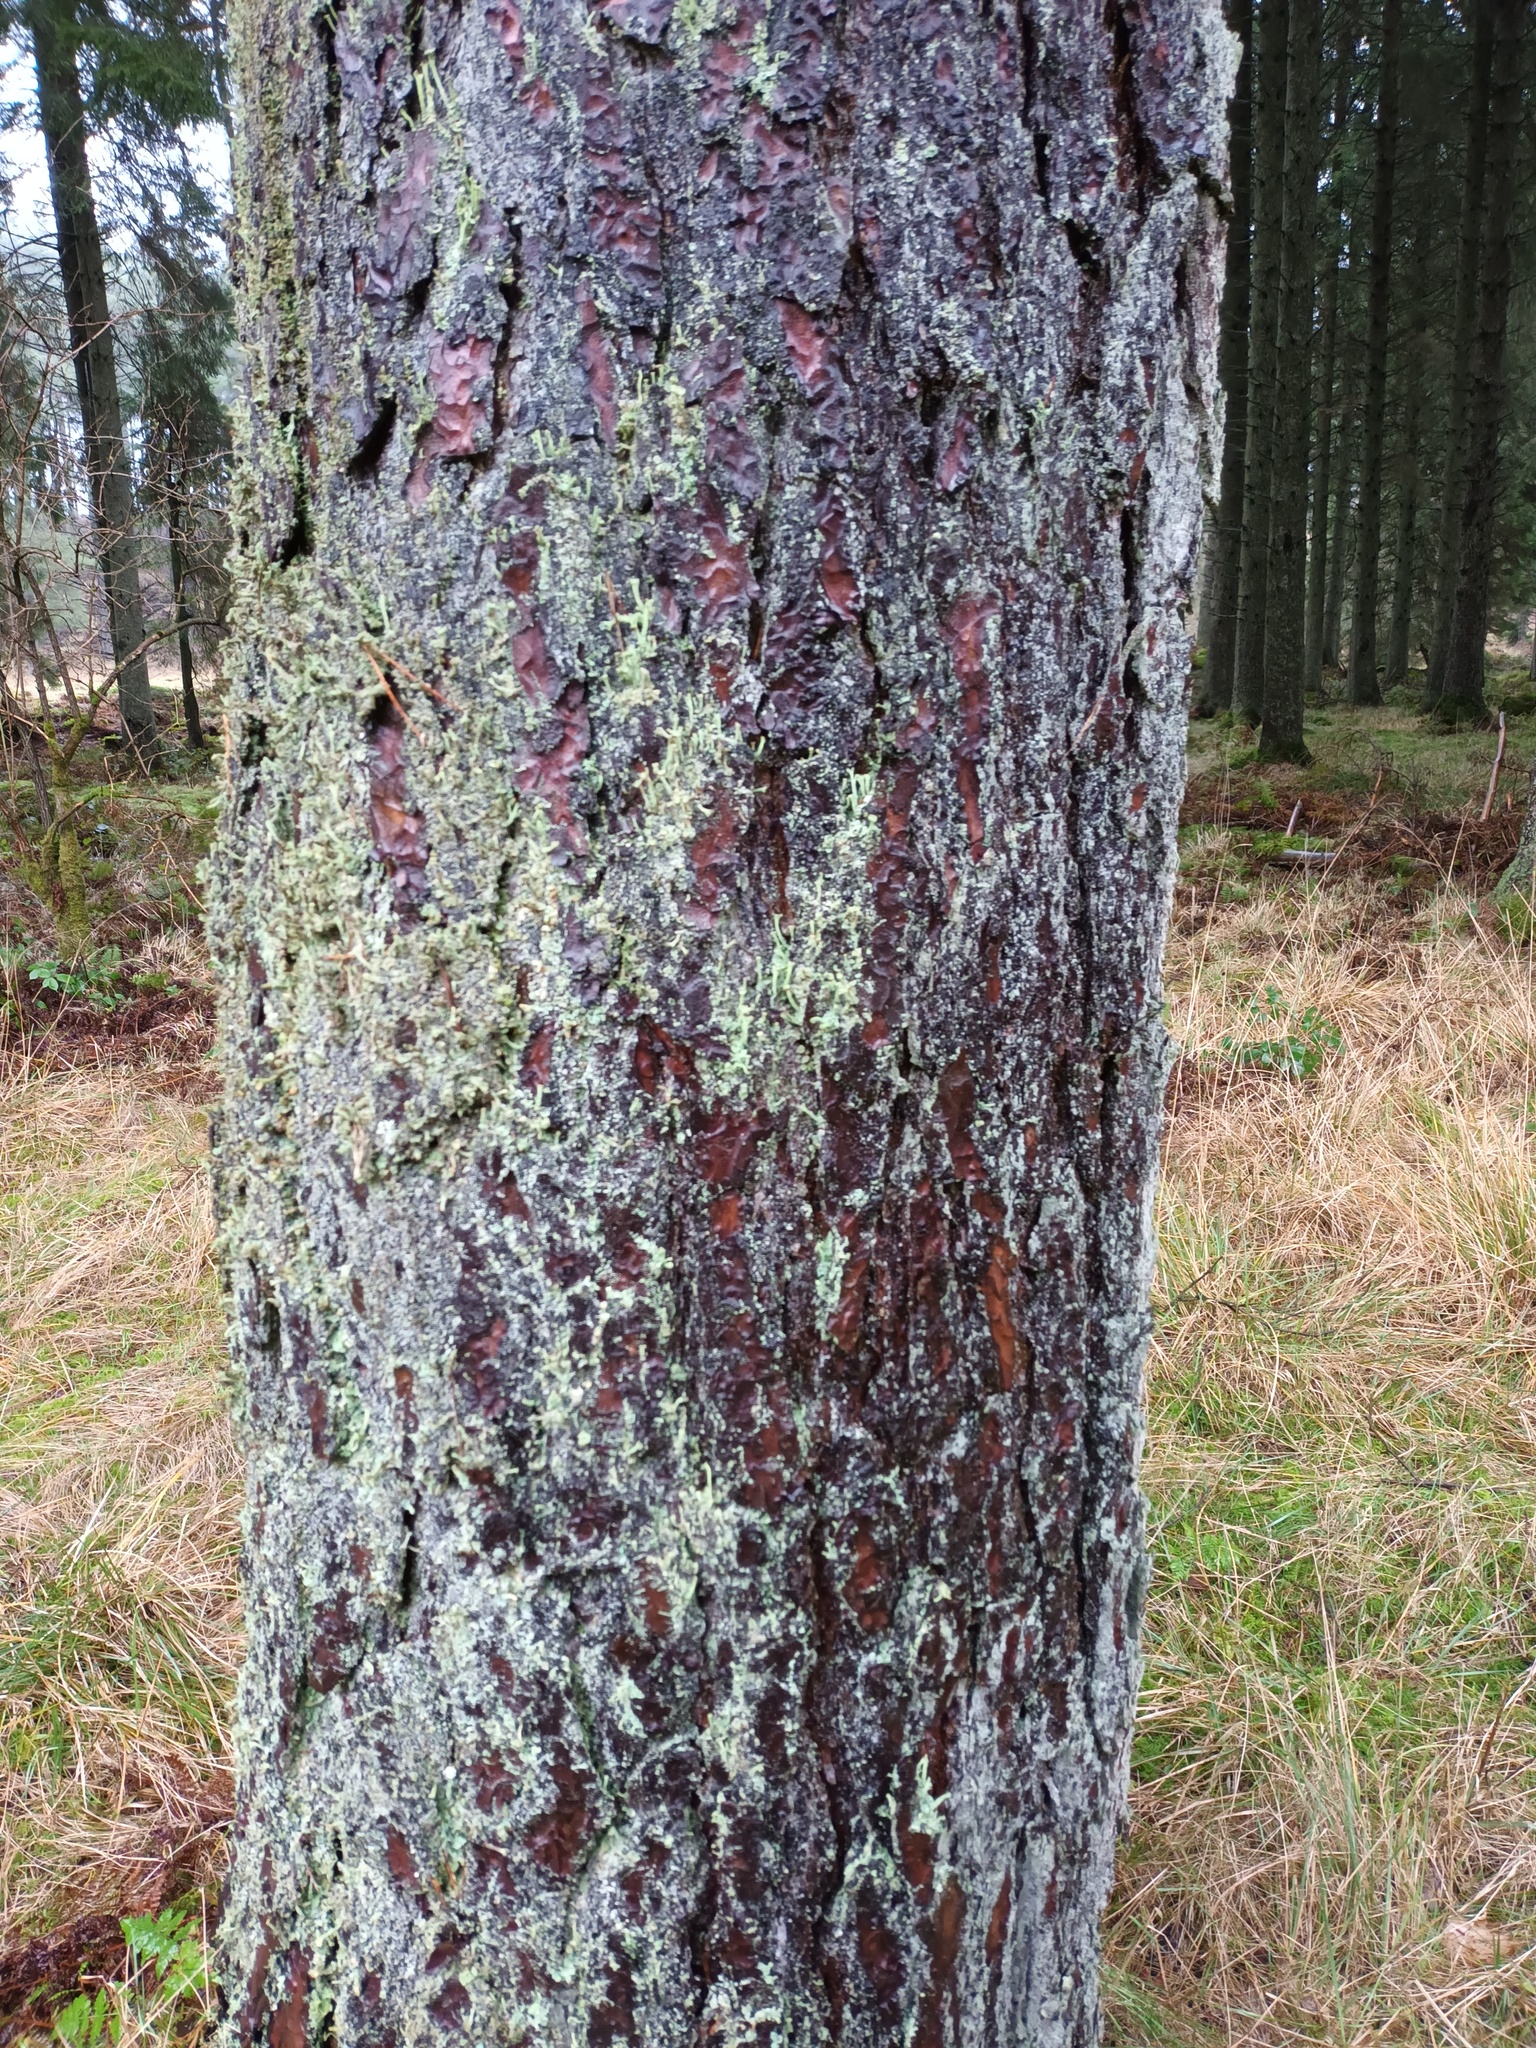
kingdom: Plantae
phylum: Tracheophyta
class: Pinopsida
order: Pinales
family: Pinaceae
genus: Pinus
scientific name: Pinus sylvestris
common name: Scots pine
